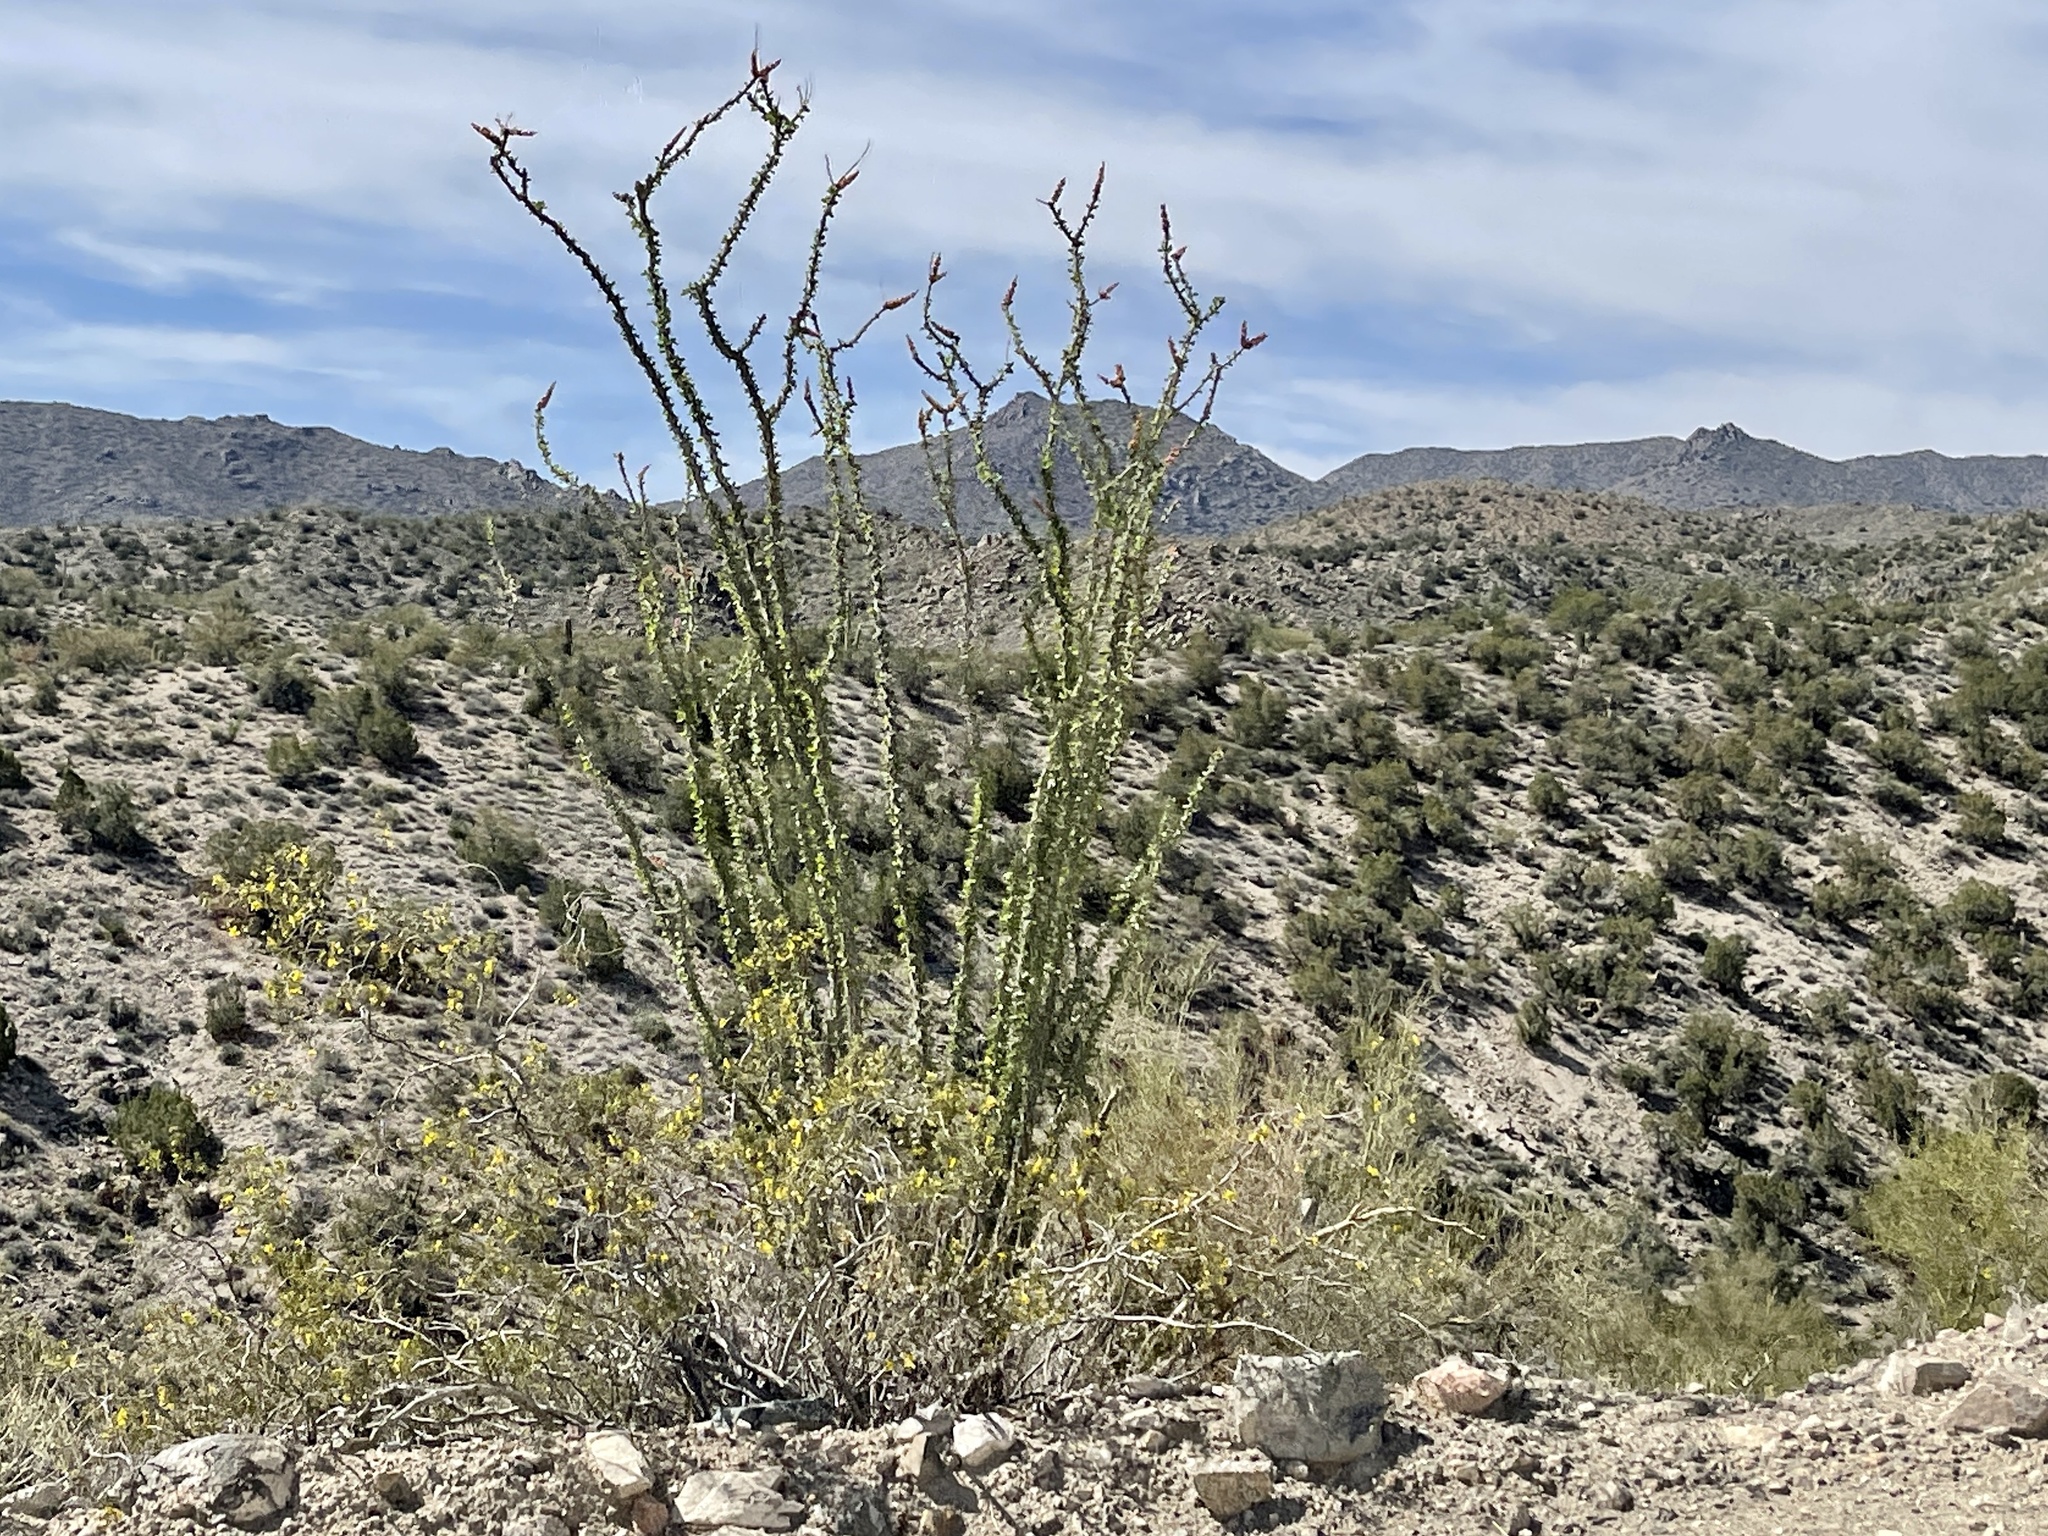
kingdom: Plantae
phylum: Tracheophyta
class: Magnoliopsida
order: Ericales
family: Fouquieriaceae
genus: Fouquieria
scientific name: Fouquieria splendens
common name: Vine-cactus
